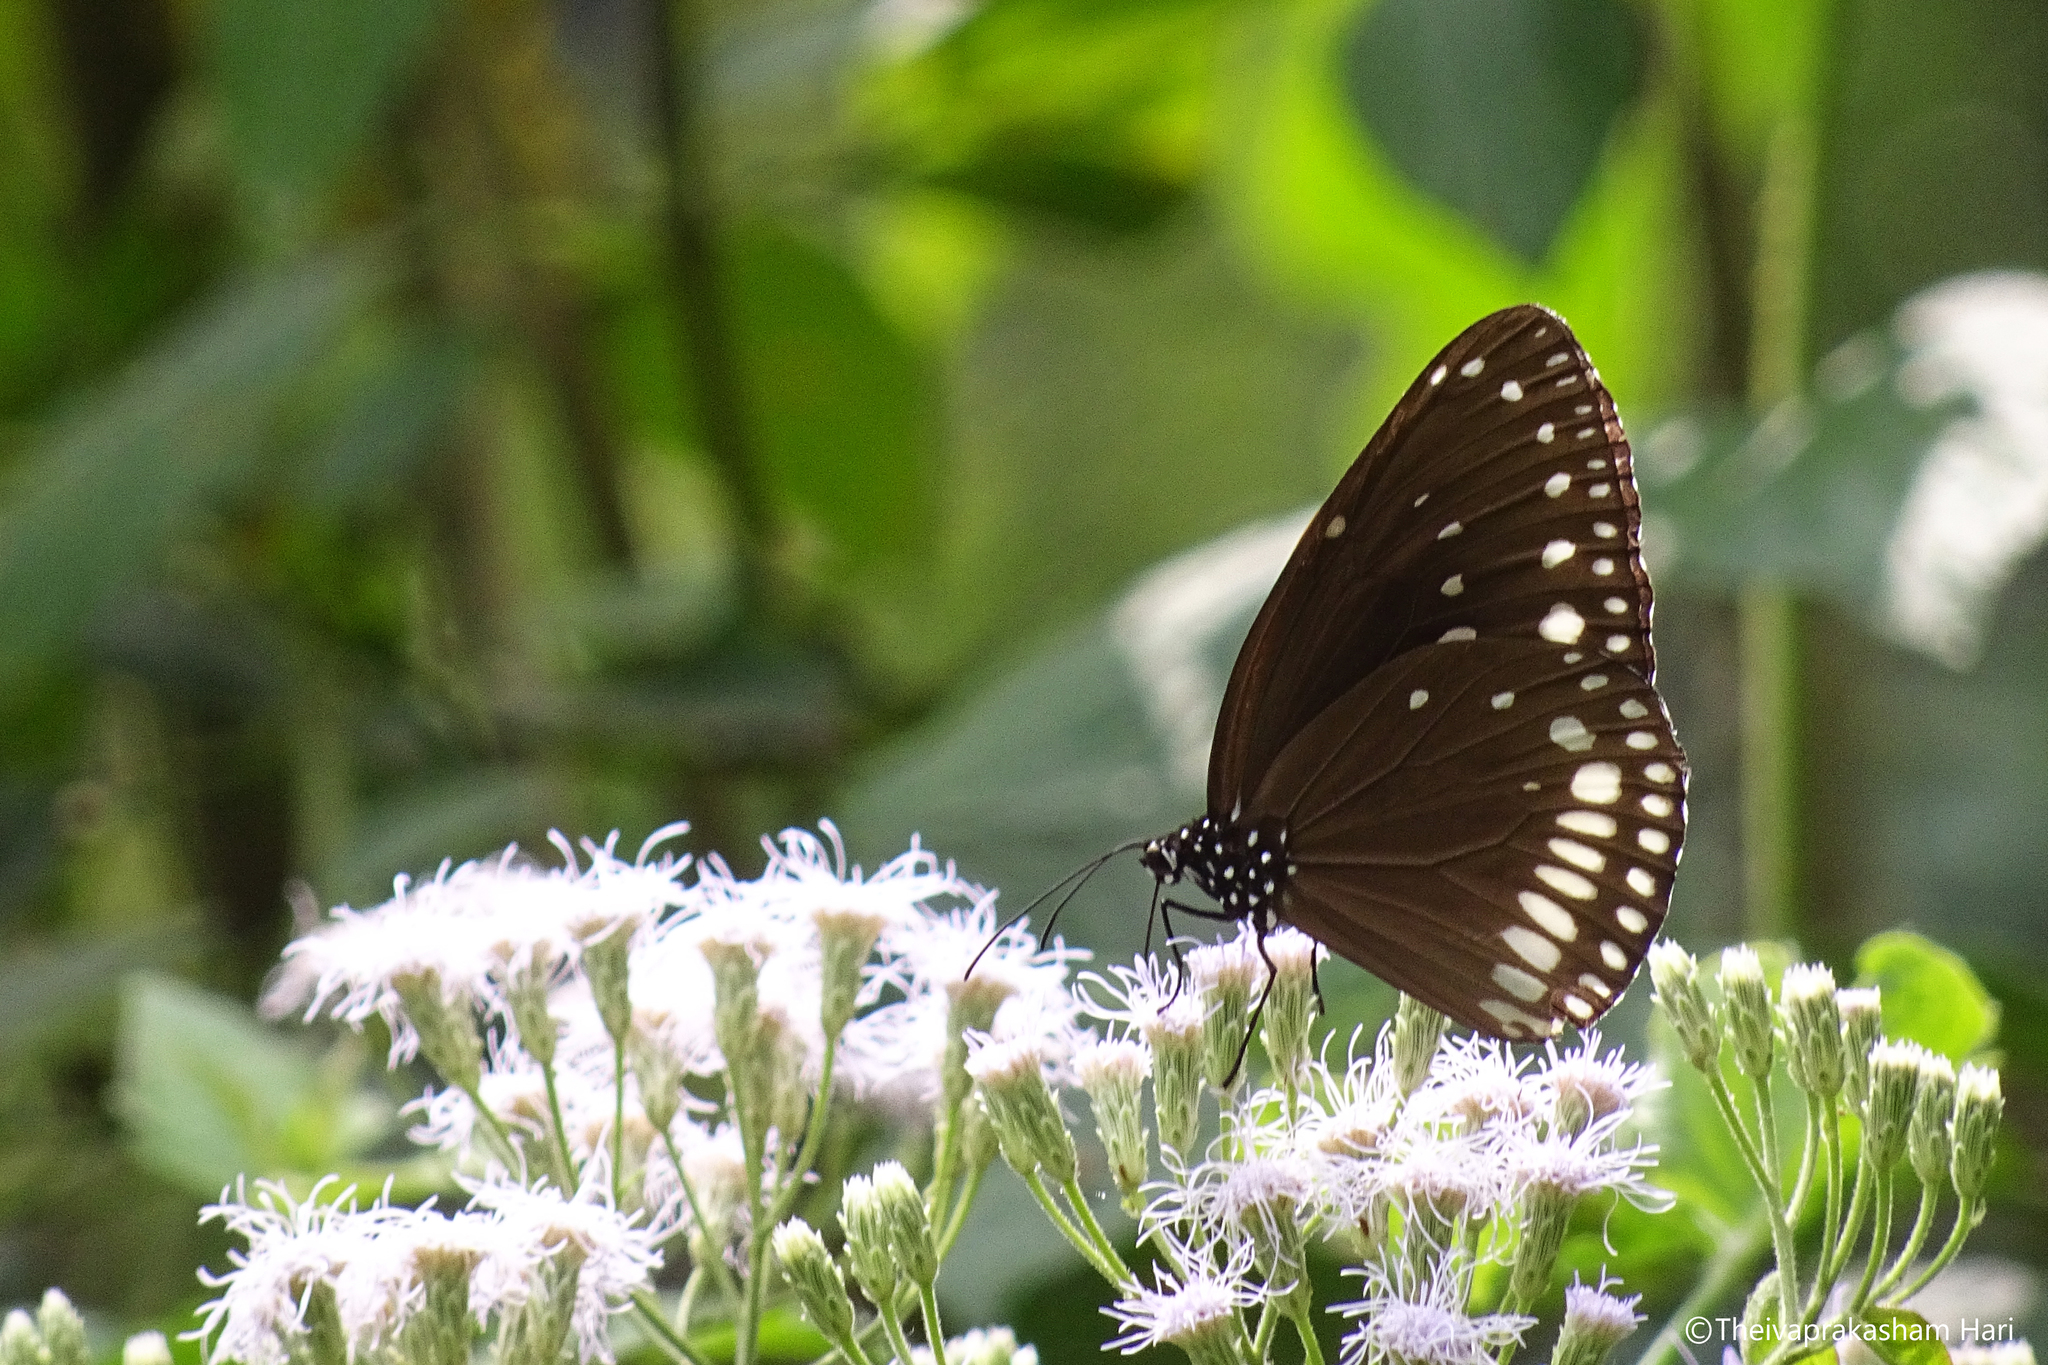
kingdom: Animalia
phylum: Arthropoda
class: Insecta
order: Lepidoptera
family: Nymphalidae
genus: Euploea
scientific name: Euploea klugii
